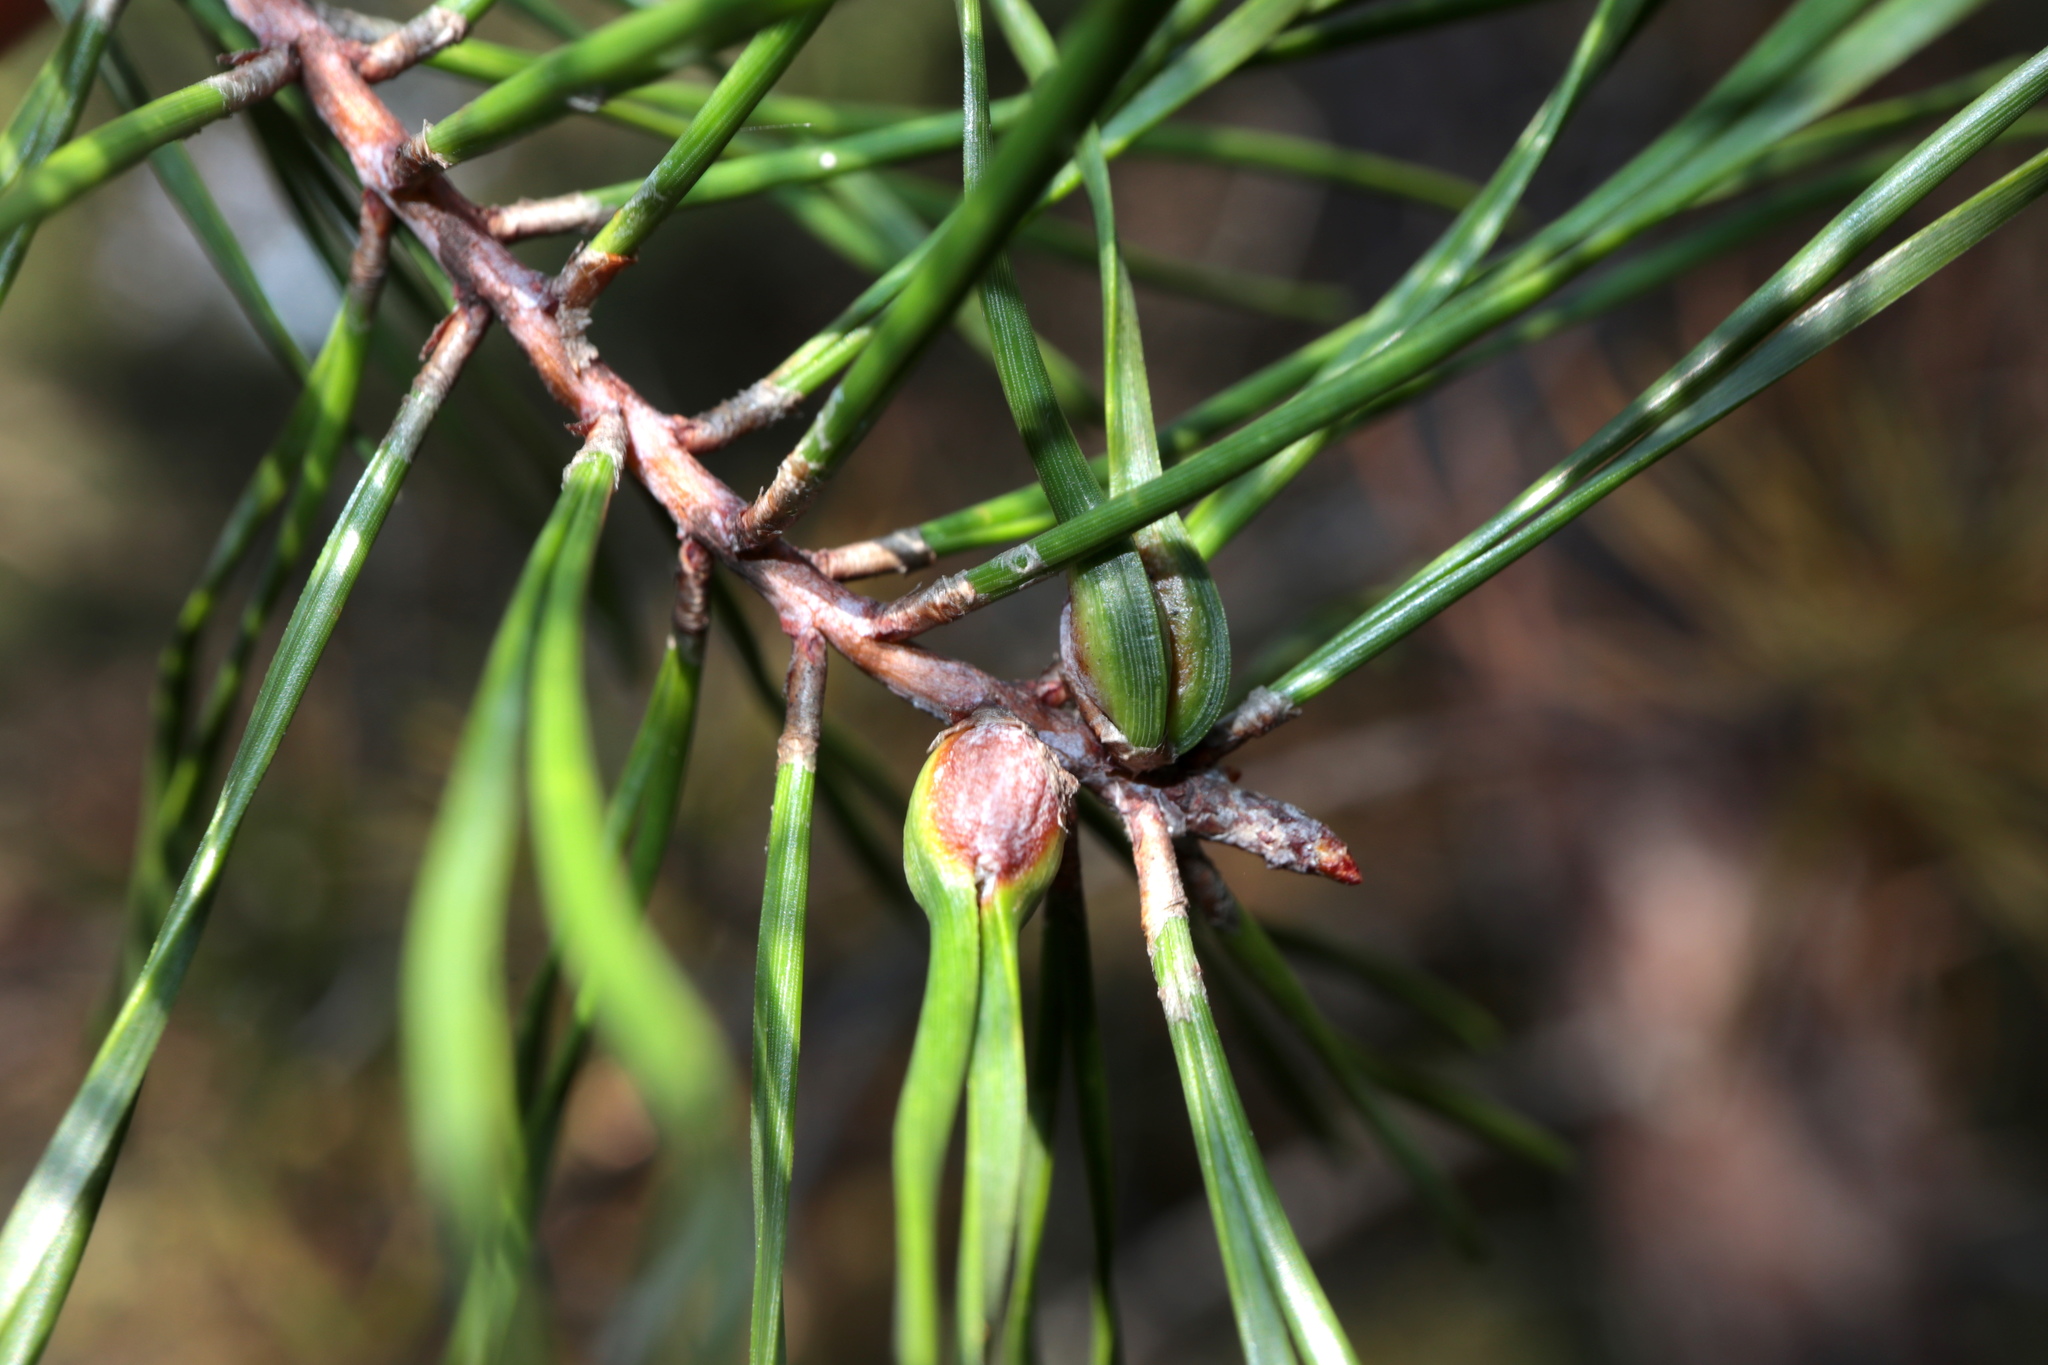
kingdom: Animalia
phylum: Arthropoda
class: Insecta
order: Diptera
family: Cecidomyiidae
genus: Thecodiplosis
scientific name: Thecodiplosis brachynteroides
